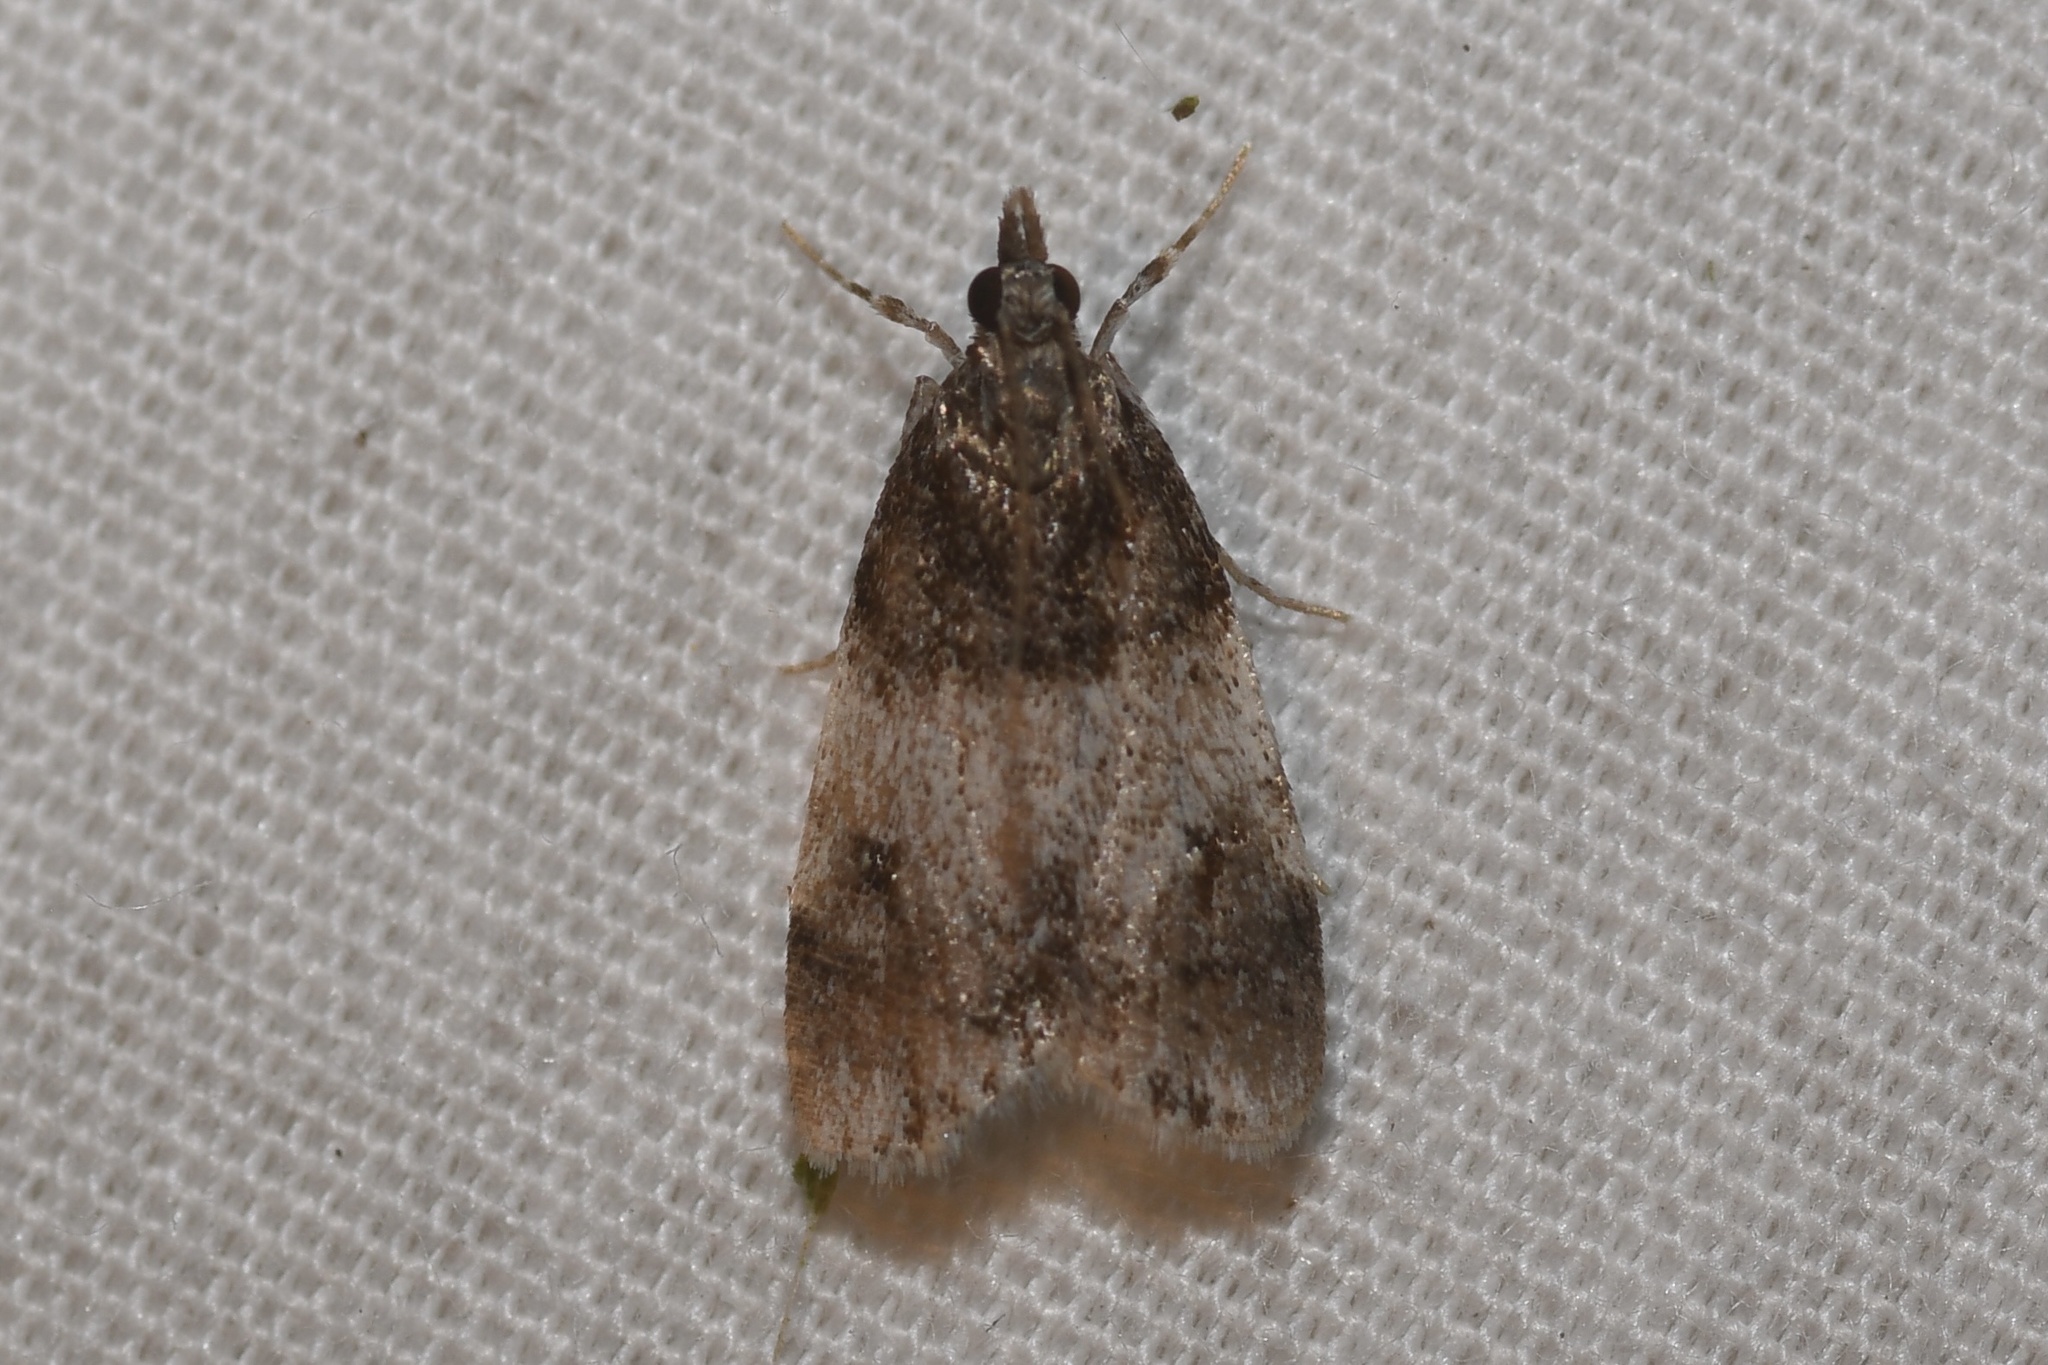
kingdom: Animalia
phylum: Arthropoda
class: Insecta
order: Lepidoptera
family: Crambidae
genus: Scoparia
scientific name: Scoparia cinereomedia
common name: Sooty scoparia moth
